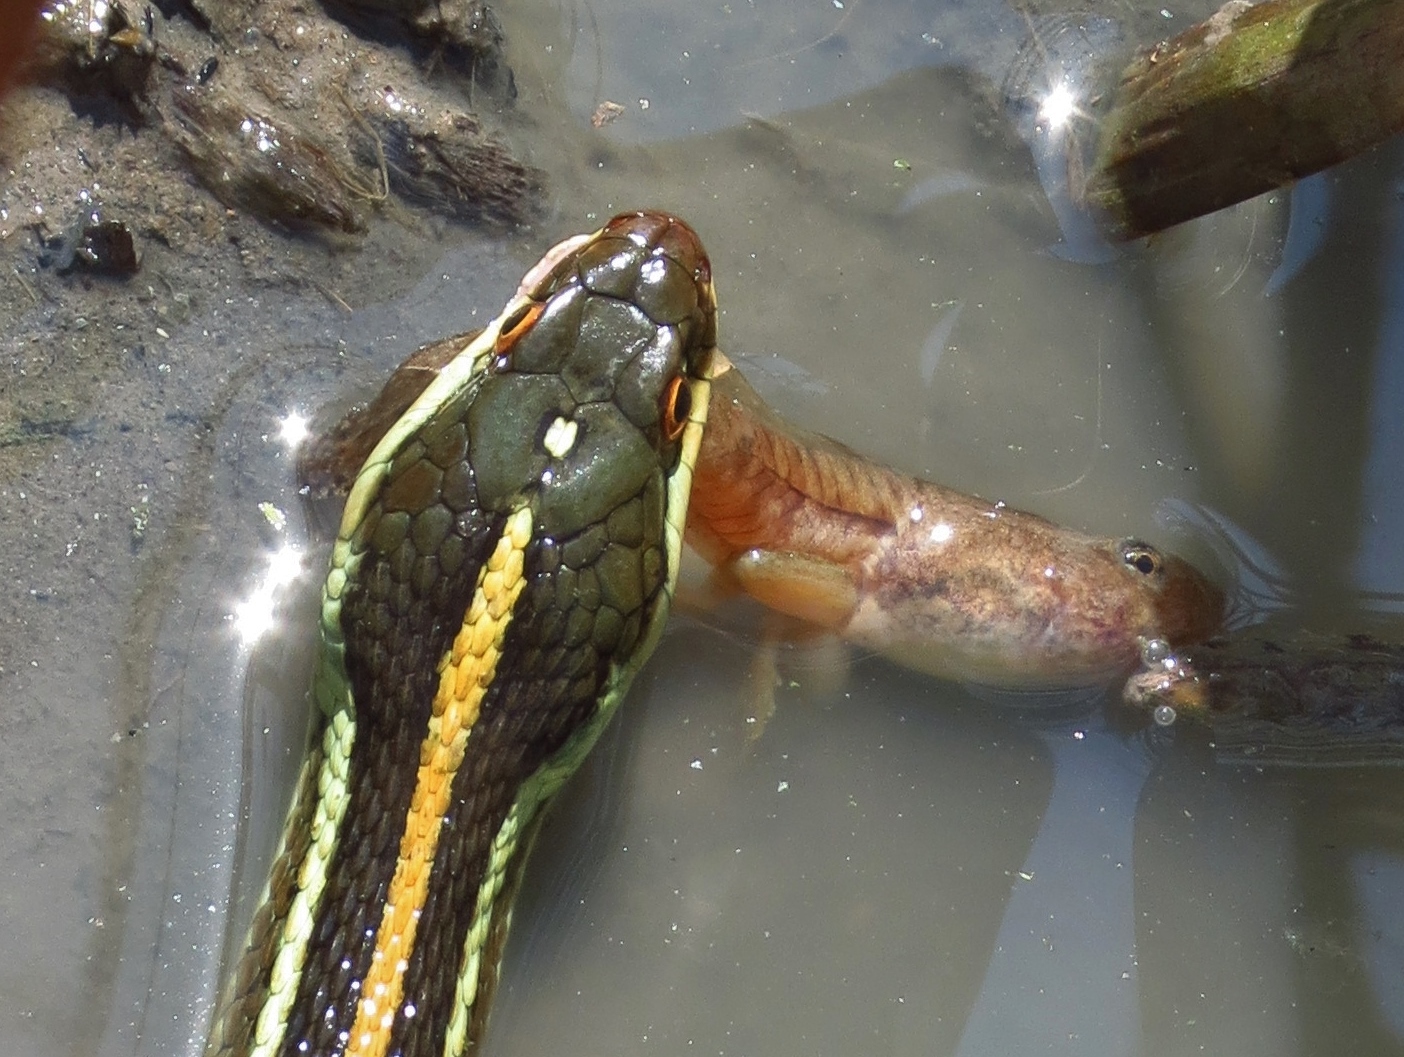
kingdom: Animalia
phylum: Chordata
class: Squamata
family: Colubridae
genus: Thamnophis
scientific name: Thamnophis proximus
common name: Western ribbon snake
